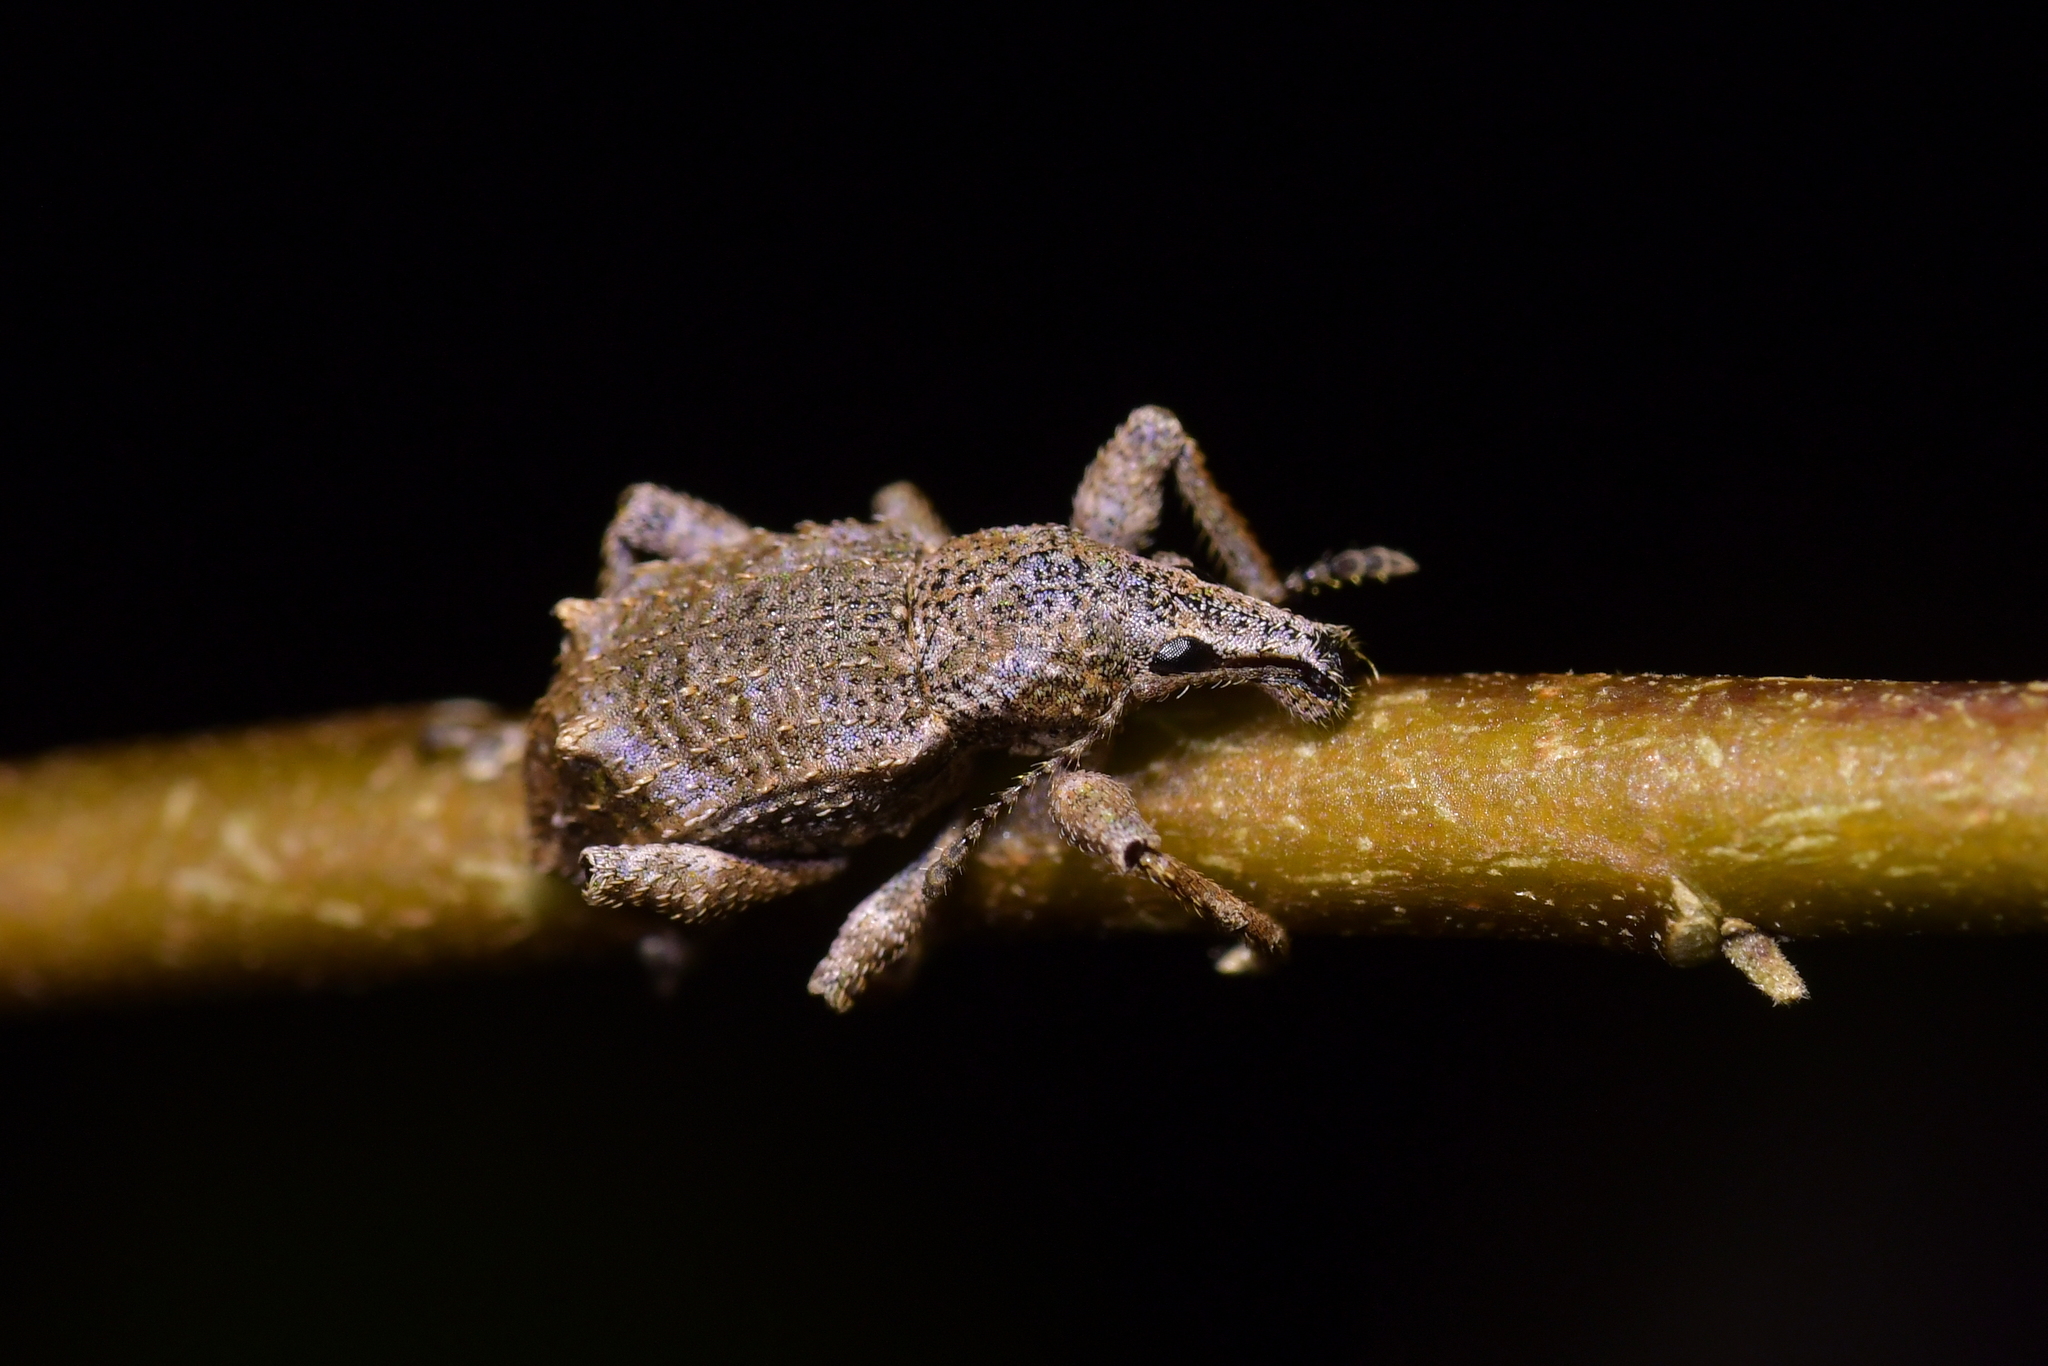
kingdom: Animalia
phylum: Arthropoda
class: Insecta
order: Coleoptera
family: Curculionidae
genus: Catoptes
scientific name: Catoptes binodis
